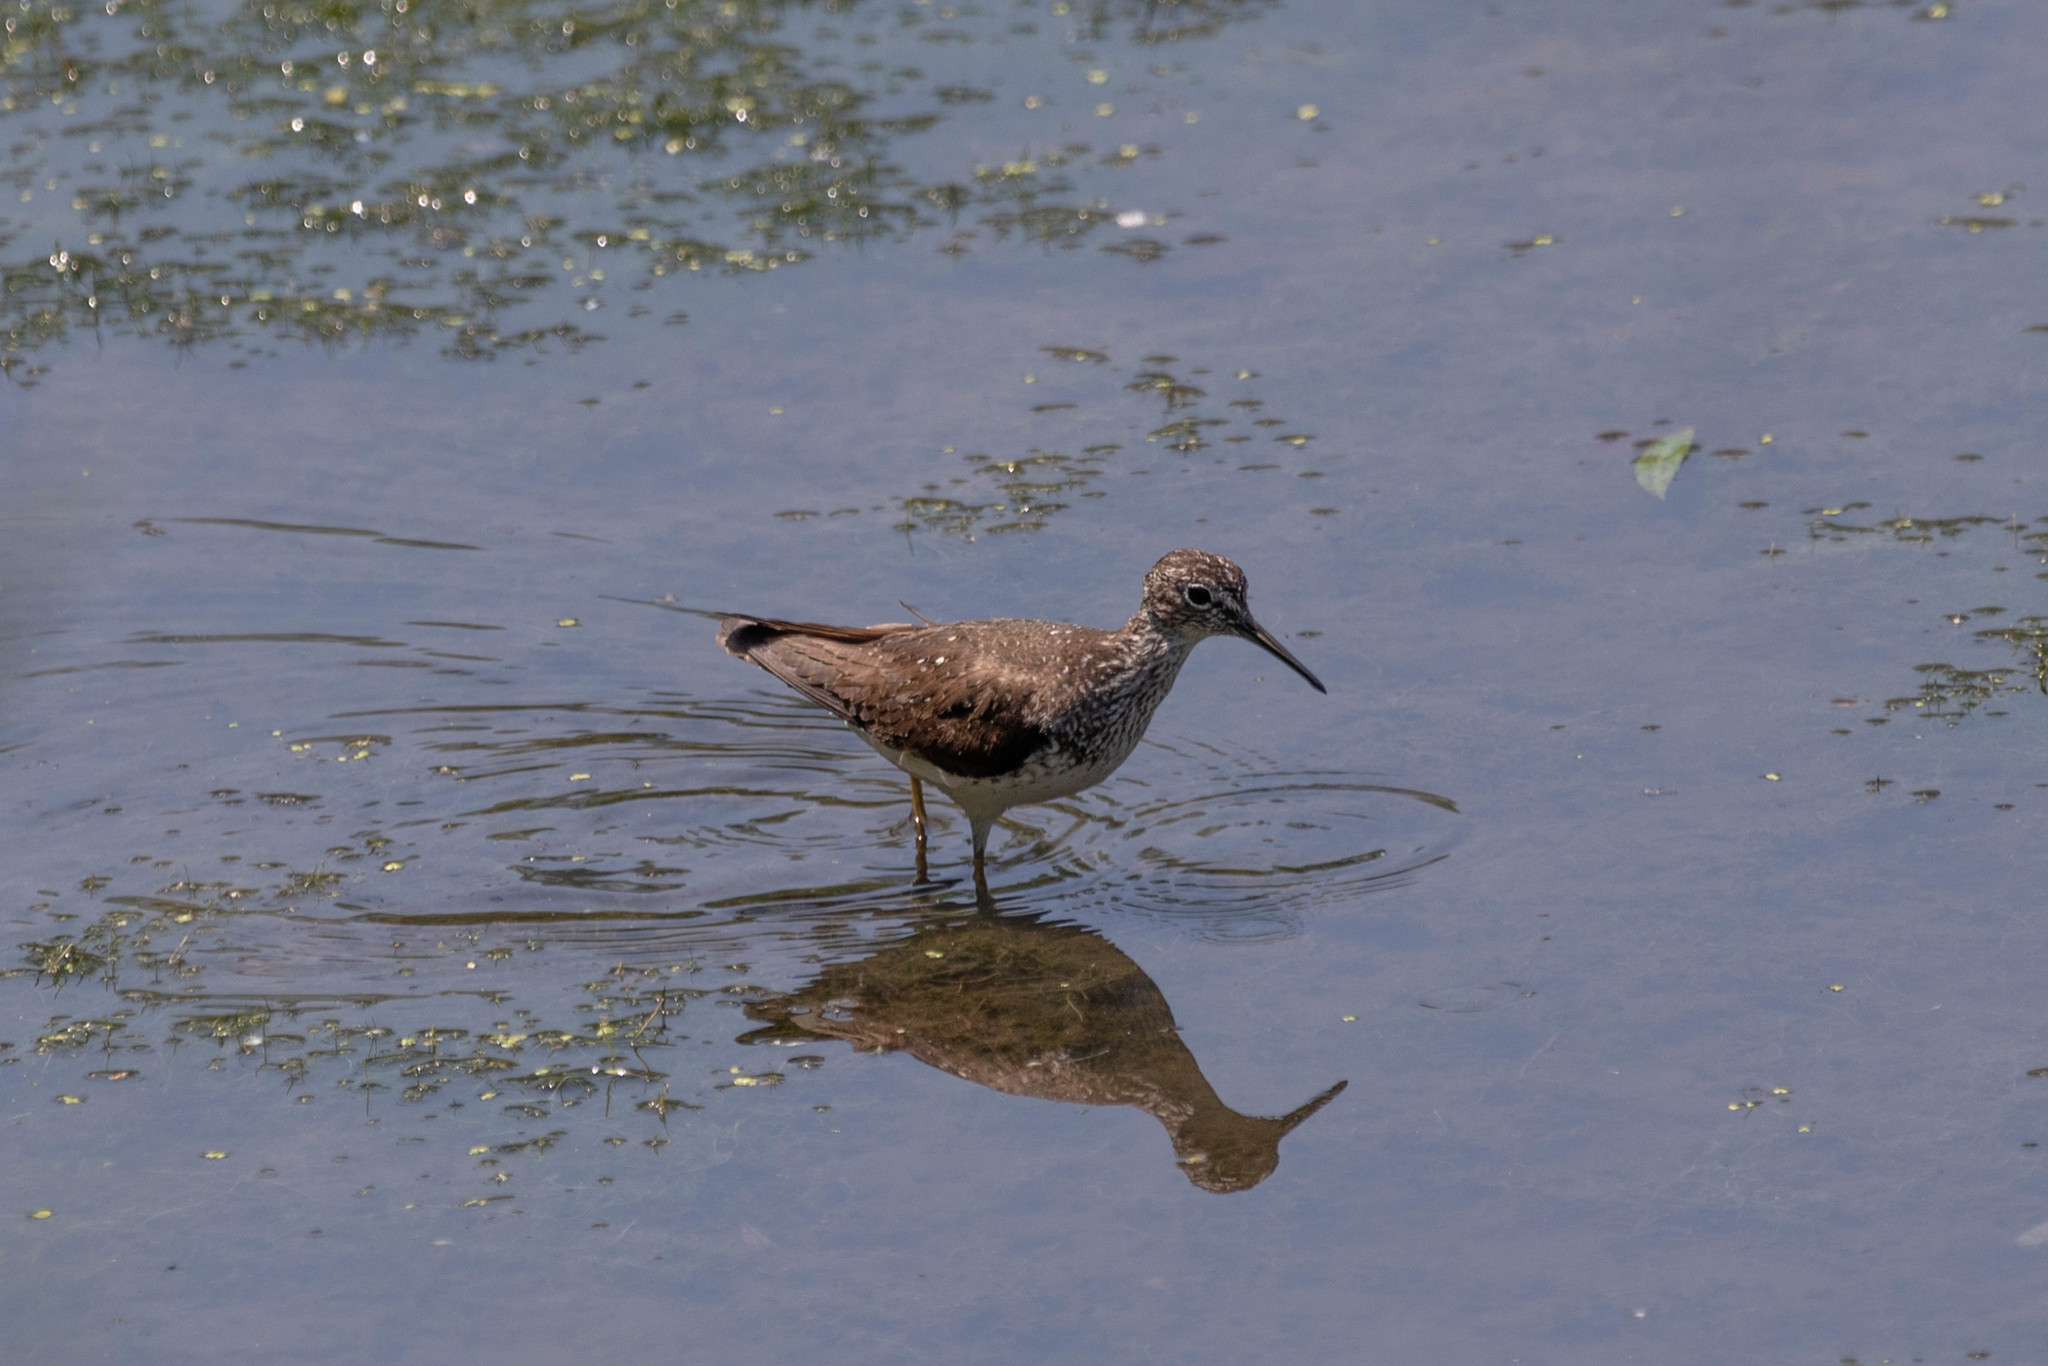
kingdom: Animalia
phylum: Chordata
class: Aves
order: Charadriiformes
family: Scolopacidae
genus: Tringa
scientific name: Tringa solitaria
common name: Solitary sandpiper
